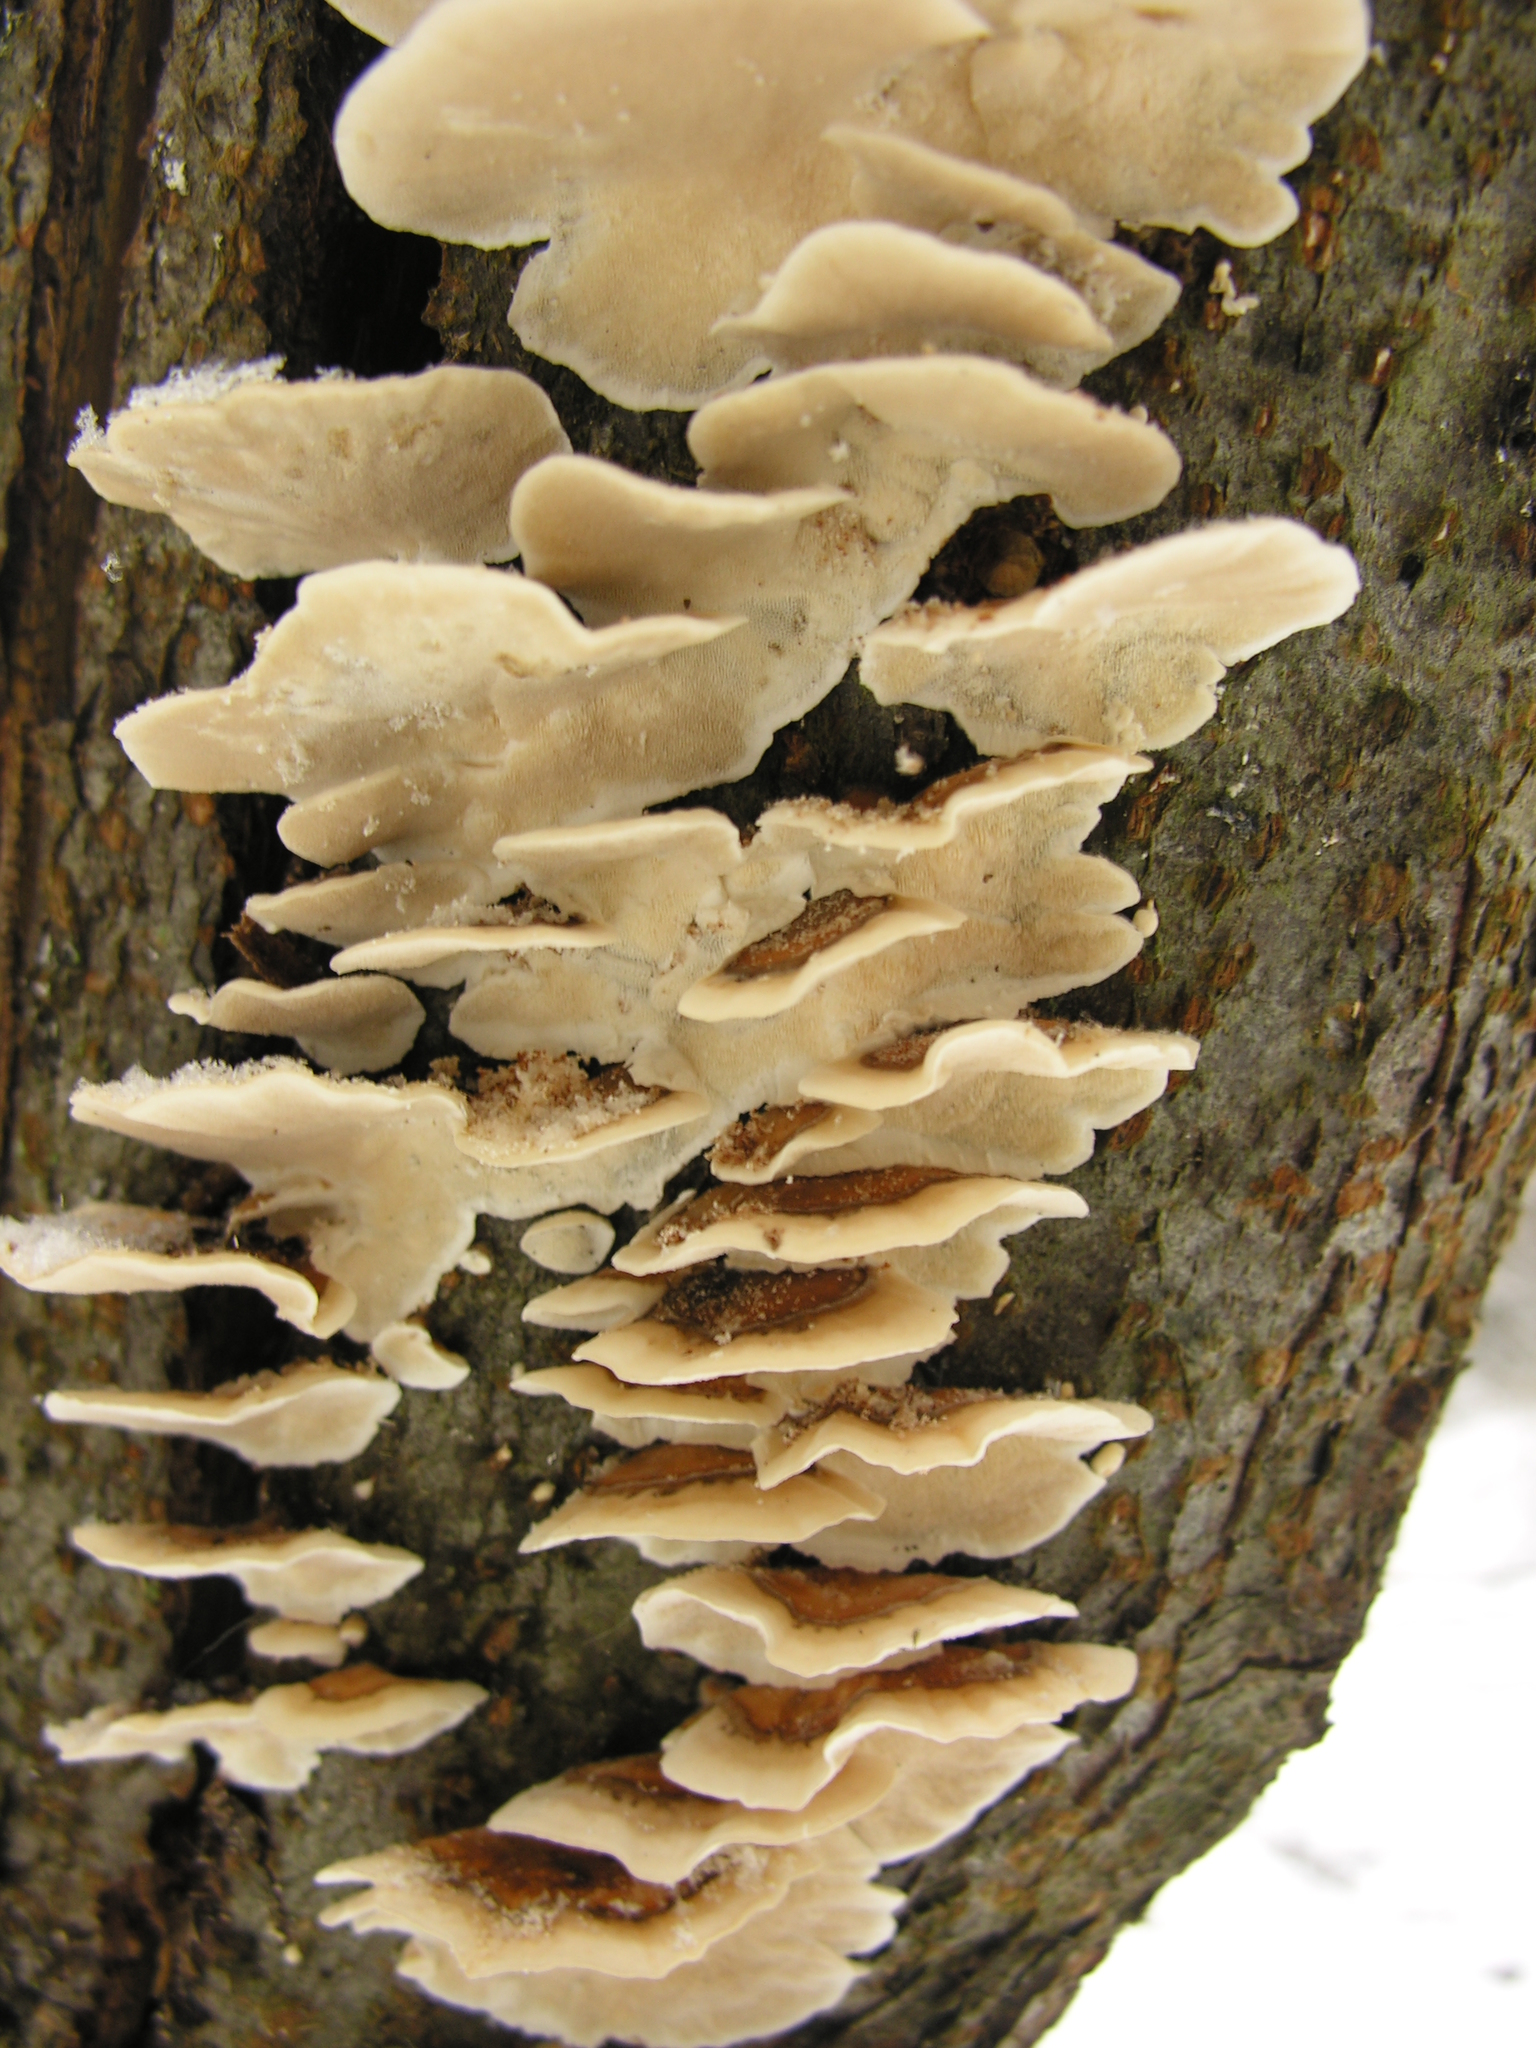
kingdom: Fungi
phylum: Basidiomycota
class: Agaricomycetes
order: Polyporales
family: Polyporaceae
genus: Trametes
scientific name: Trametes ochracea
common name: Ochre bracket
